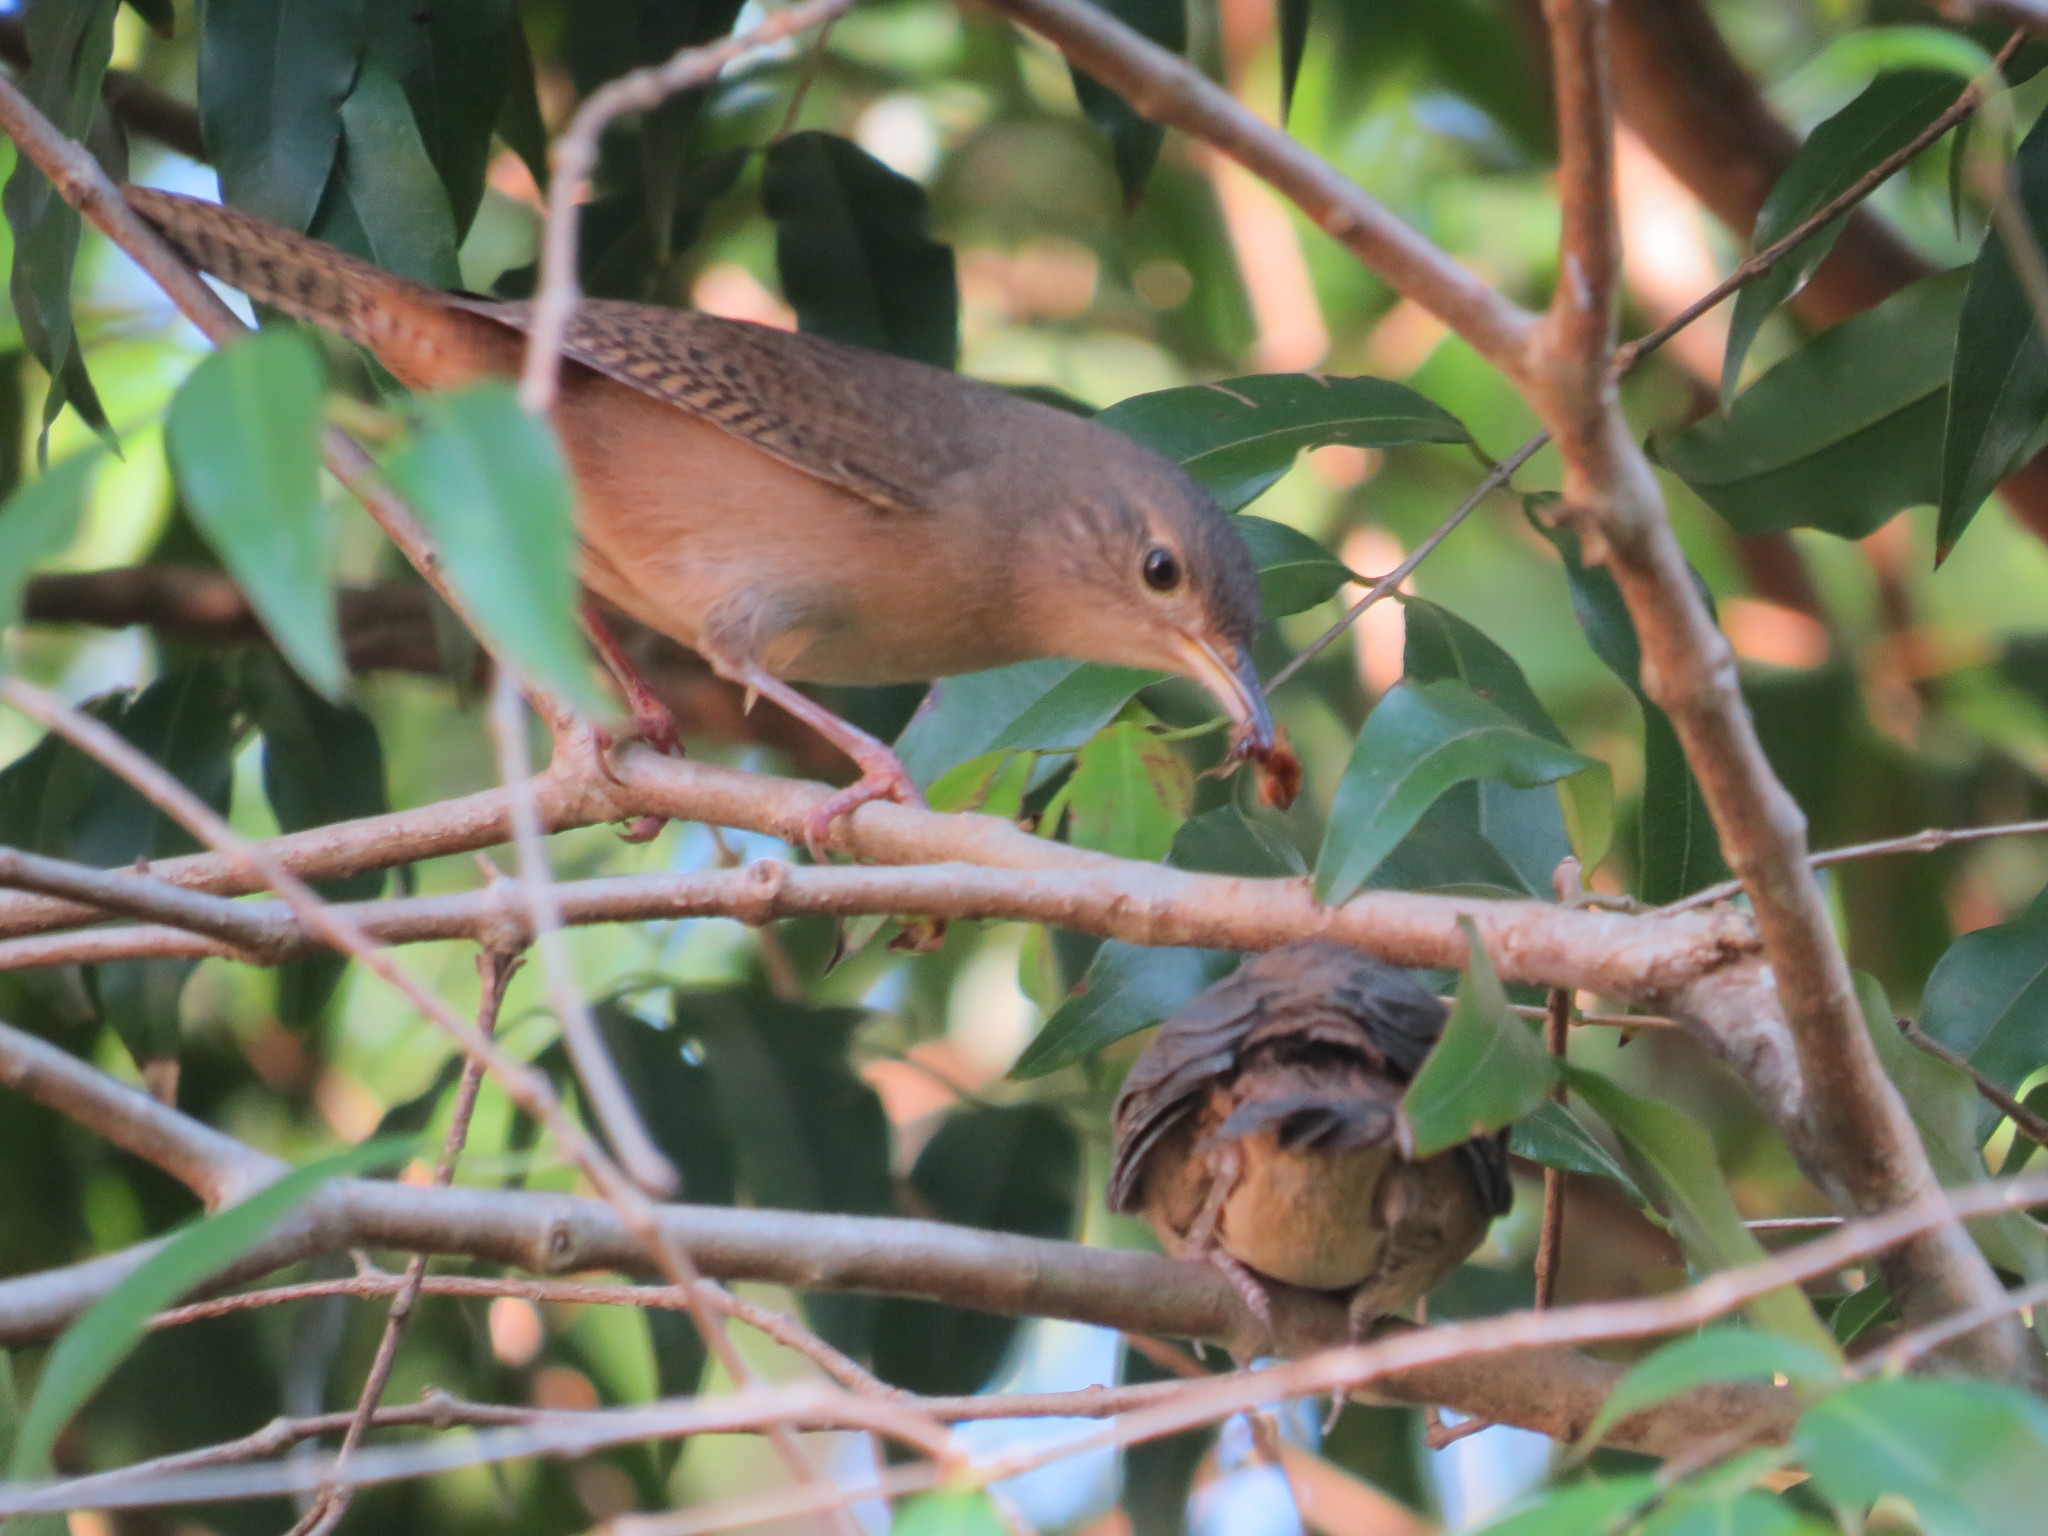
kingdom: Animalia
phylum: Chordata
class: Aves
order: Passeriformes
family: Troglodytidae
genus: Troglodytes
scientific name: Troglodytes aedon
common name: House wren
